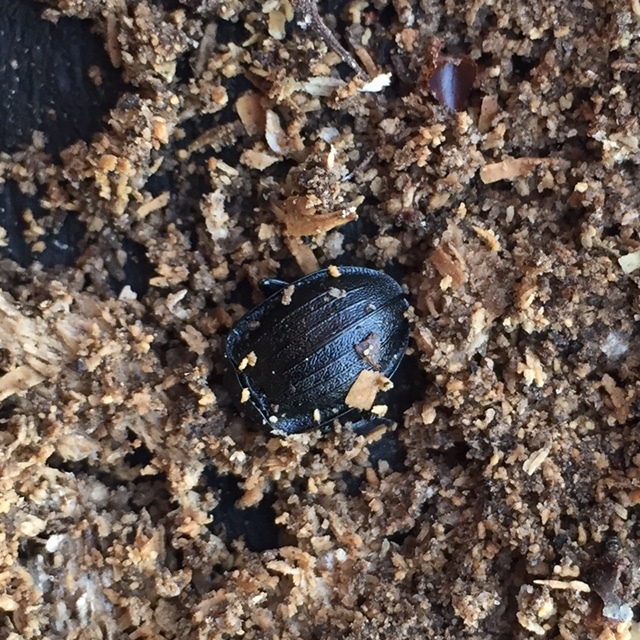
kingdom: Animalia
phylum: Arthropoda
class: Insecta
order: Coleoptera
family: Staphylinidae
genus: Silpha
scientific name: Silpha atrata
